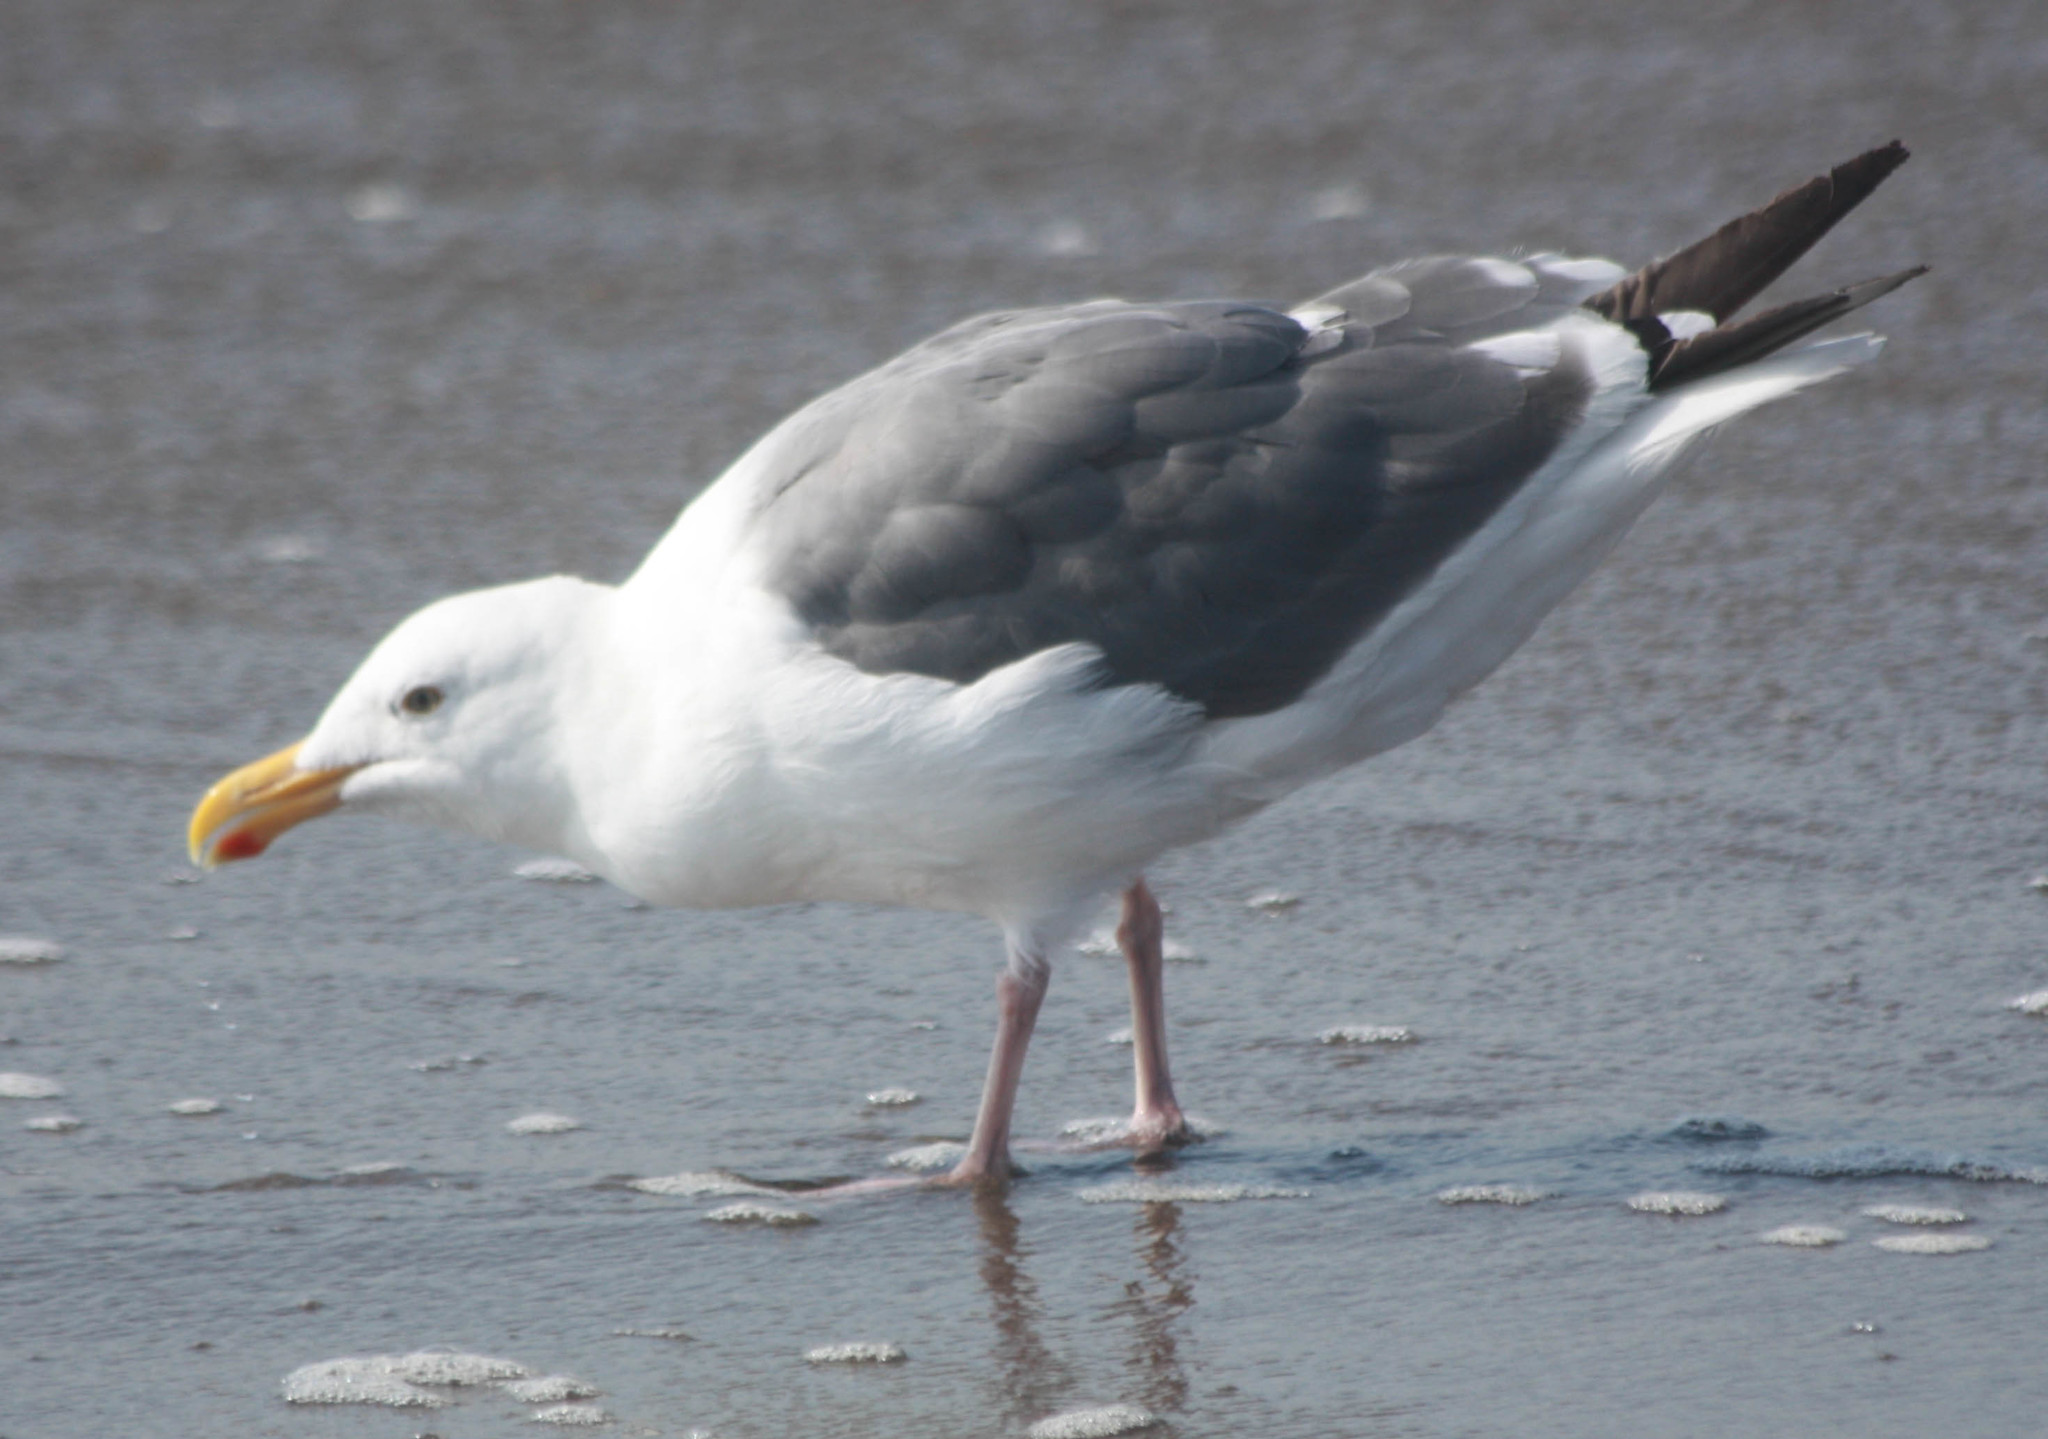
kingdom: Animalia
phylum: Chordata
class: Aves
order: Charadriiformes
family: Laridae
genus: Larus
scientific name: Larus occidentalis
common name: Western gull
